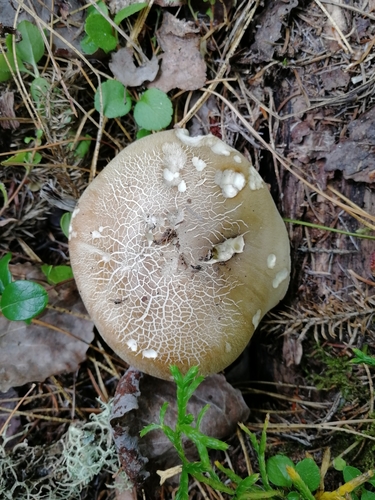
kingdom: Fungi
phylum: Basidiomycota
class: Agaricomycetes
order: Agaricales
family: Tricholomataceae
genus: Tricholoma
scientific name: Tricholoma saponaceum
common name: Soapy trich
